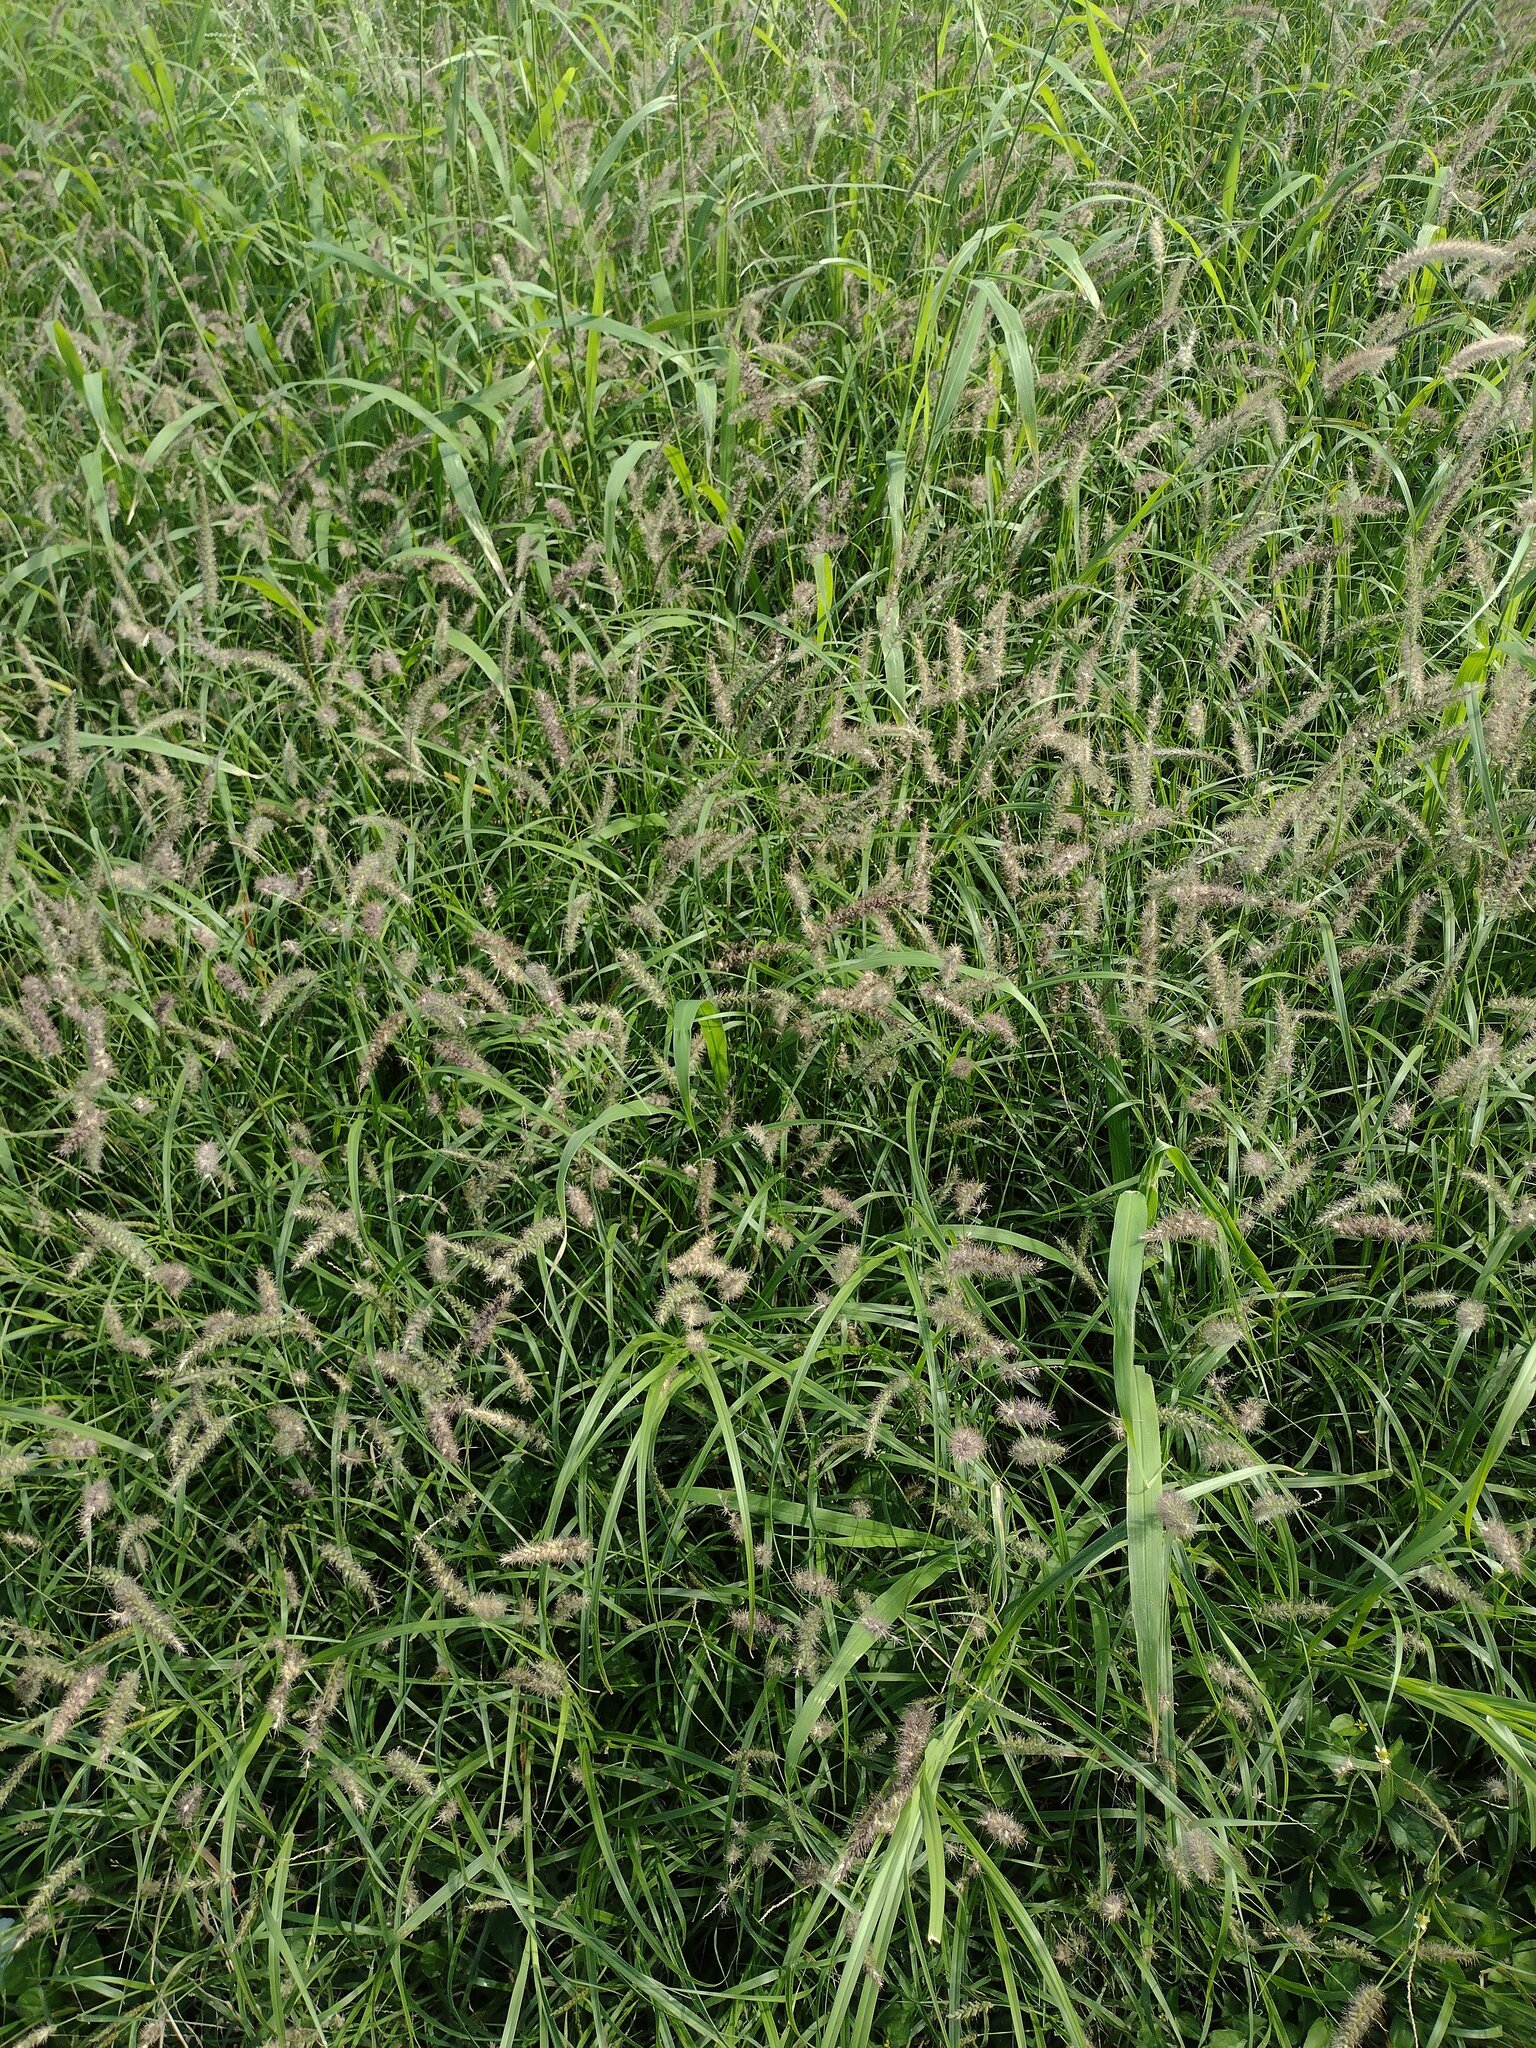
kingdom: Plantae
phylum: Tracheophyta
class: Liliopsida
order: Poales
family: Poaceae
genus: Cenchrus
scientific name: Cenchrus ciliaris
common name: Buffelgrass
